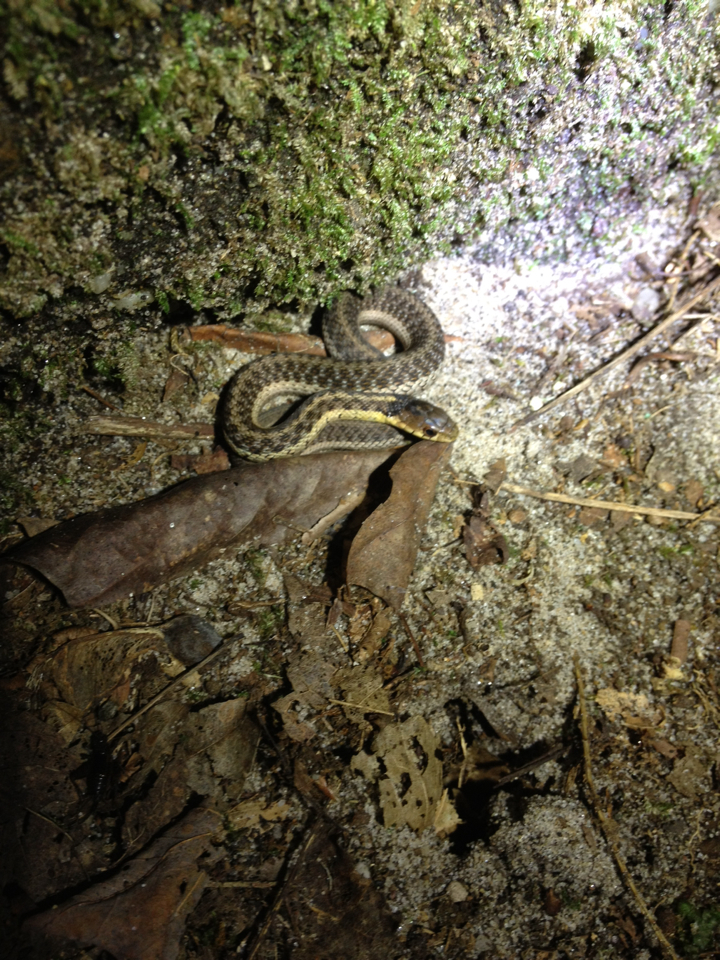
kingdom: Animalia
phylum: Chordata
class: Squamata
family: Colubridae
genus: Thamnophis
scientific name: Thamnophis sirtalis
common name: Common garter snake
